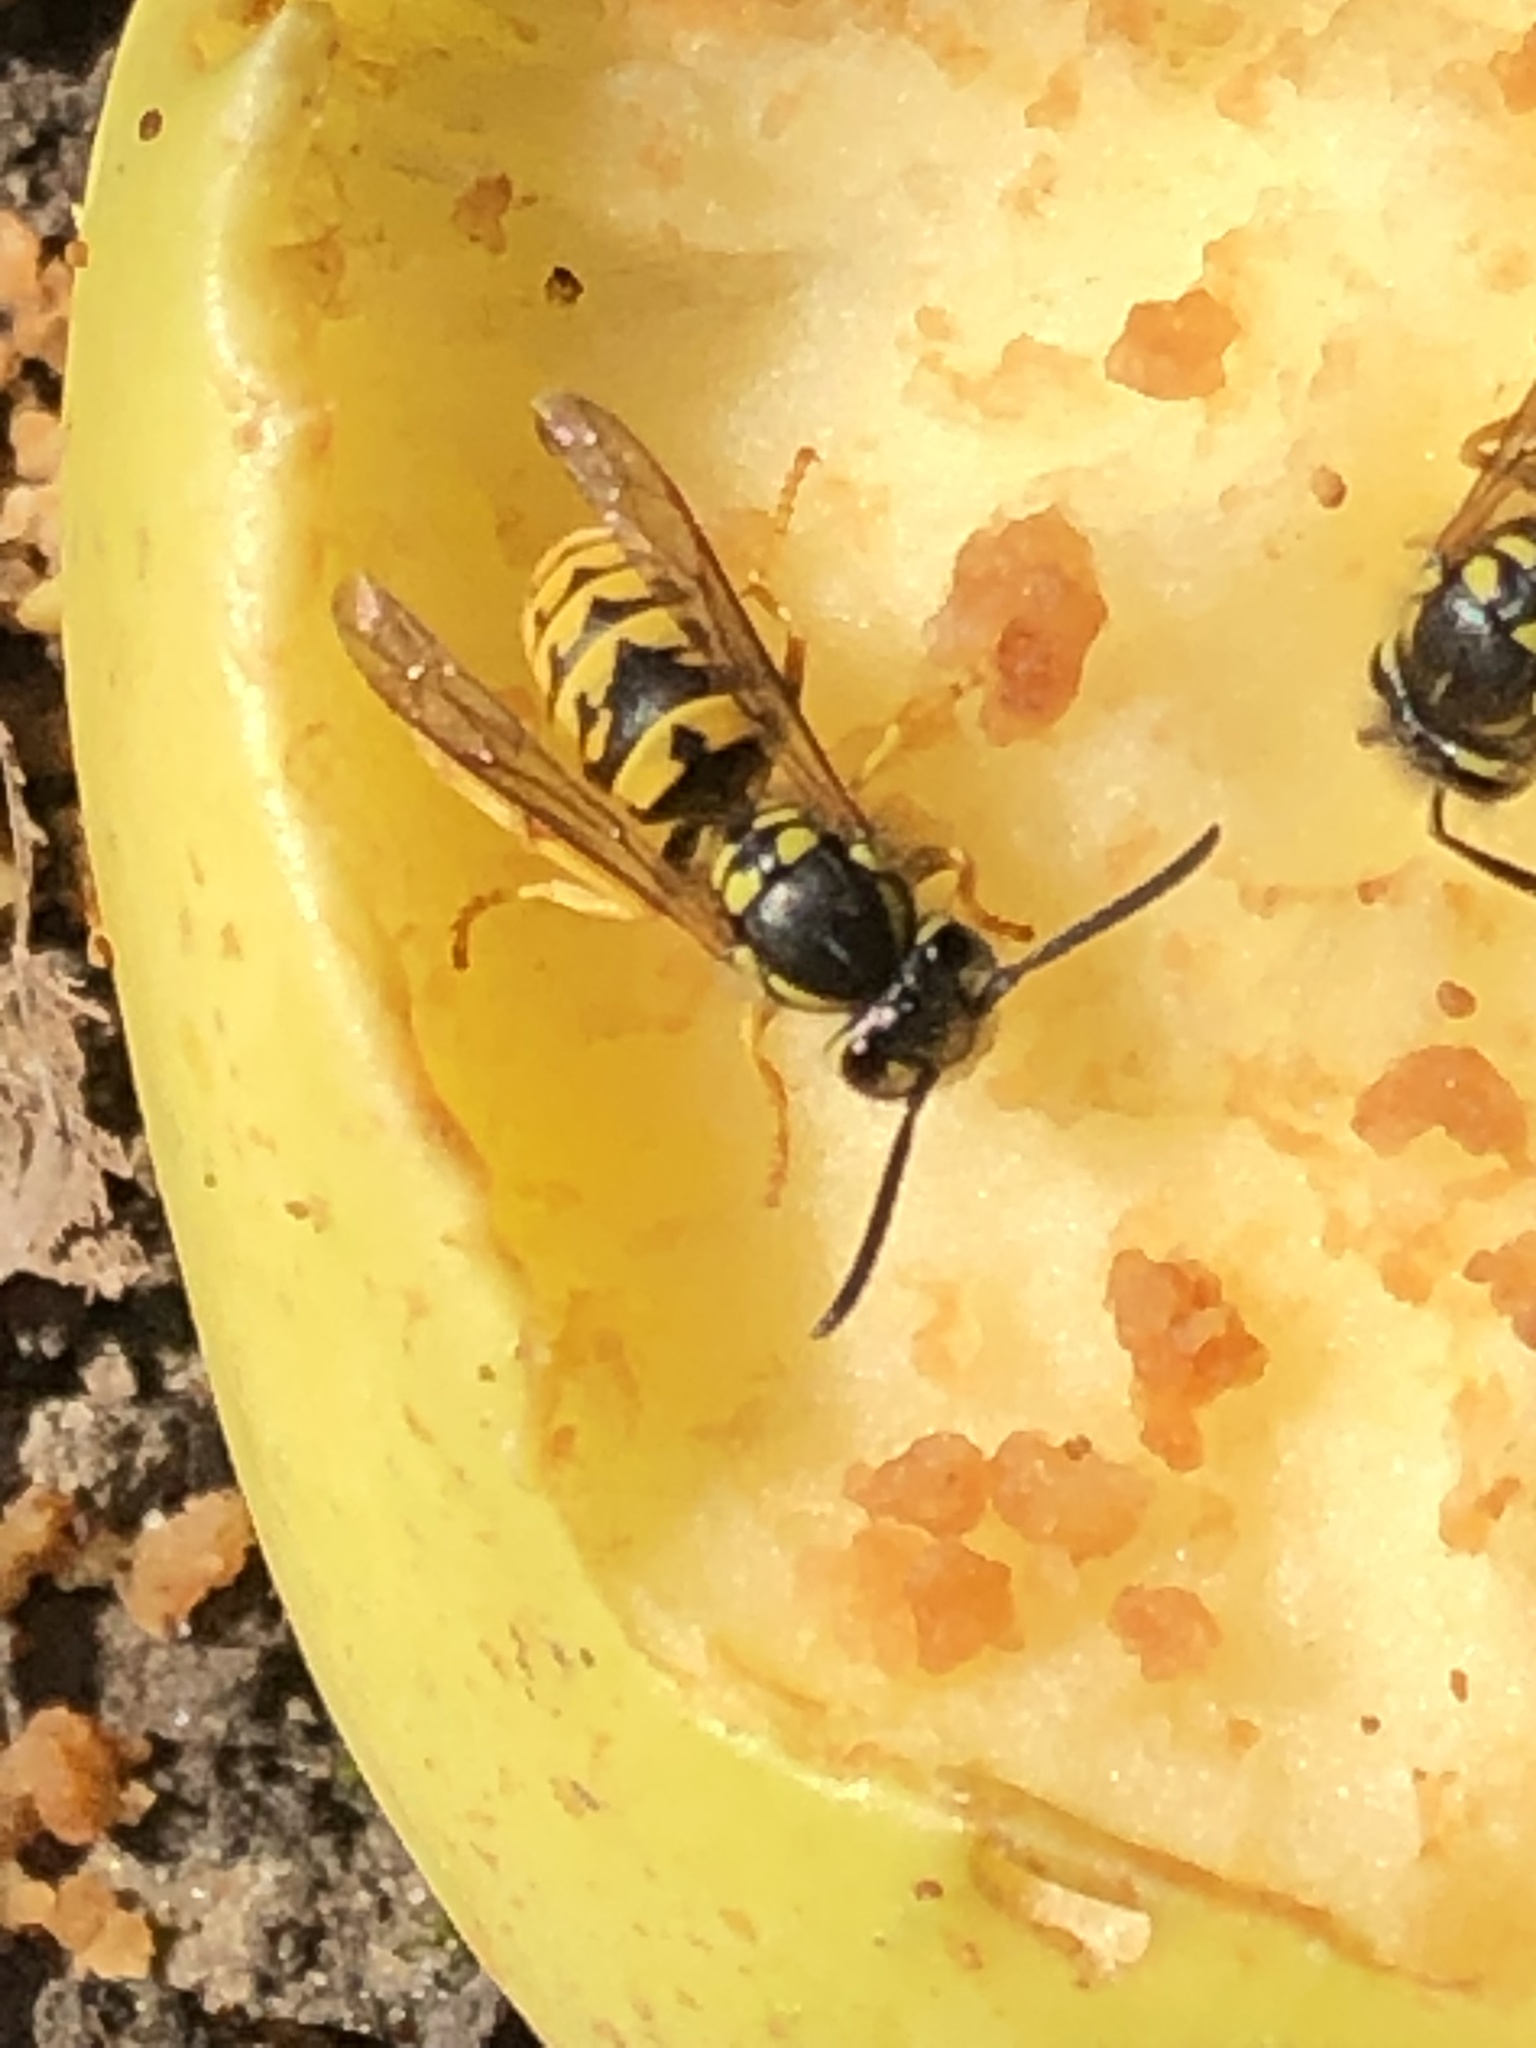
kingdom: Animalia
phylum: Arthropoda
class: Insecta
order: Hymenoptera
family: Vespidae
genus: Vespula
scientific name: Vespula germanica
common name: German wasp
